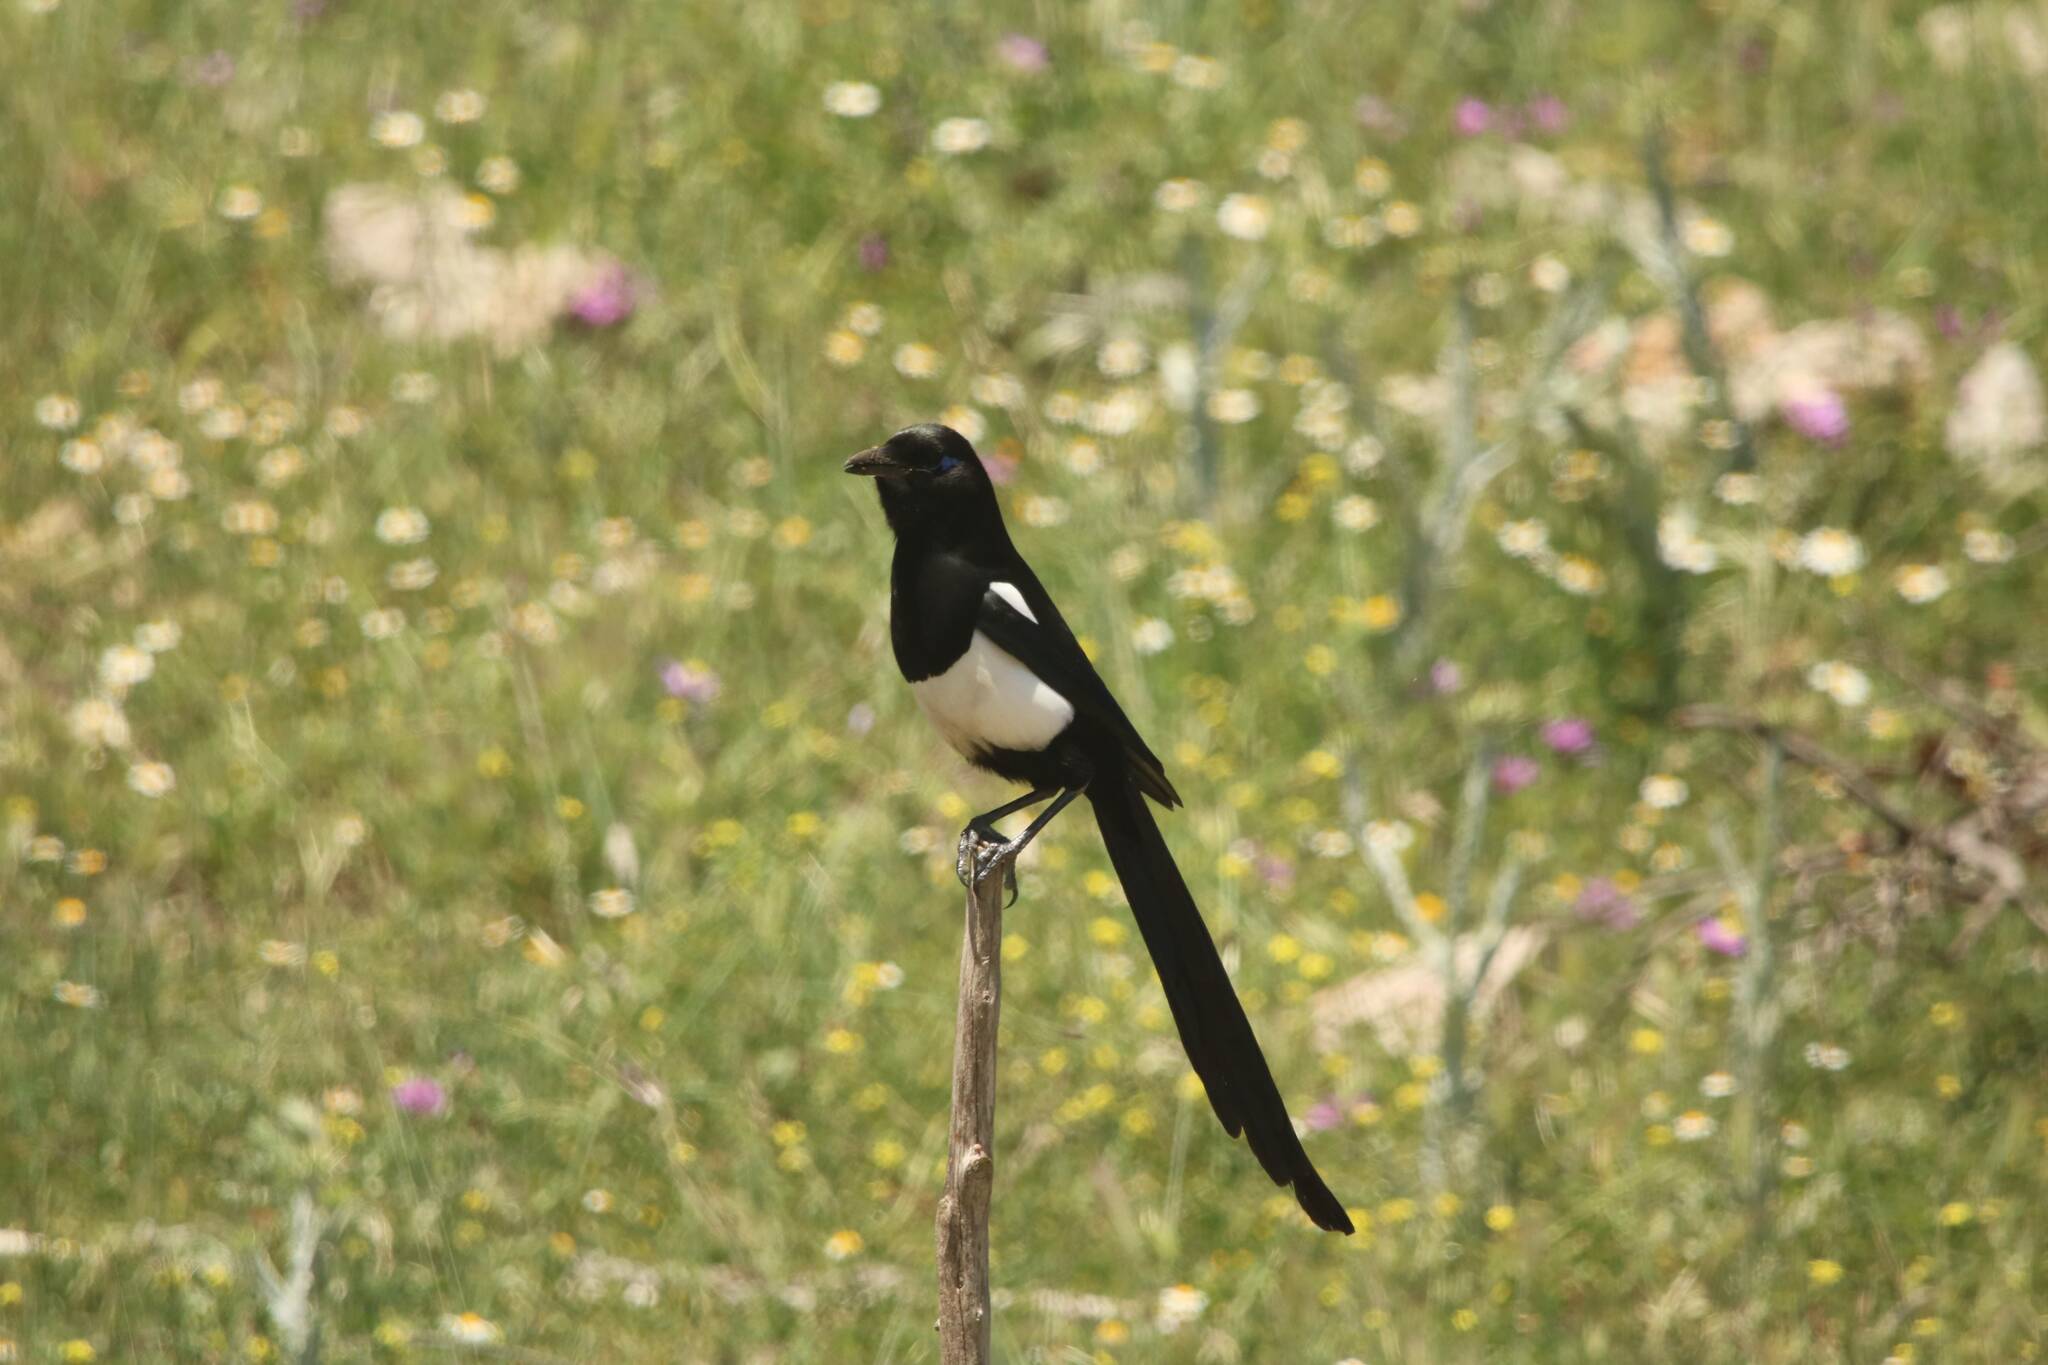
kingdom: Animalia
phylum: Chordata
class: Aves
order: Passeriformes
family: Corvidae
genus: Pica
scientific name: Pica mauritanica
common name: Maghreb magpie
